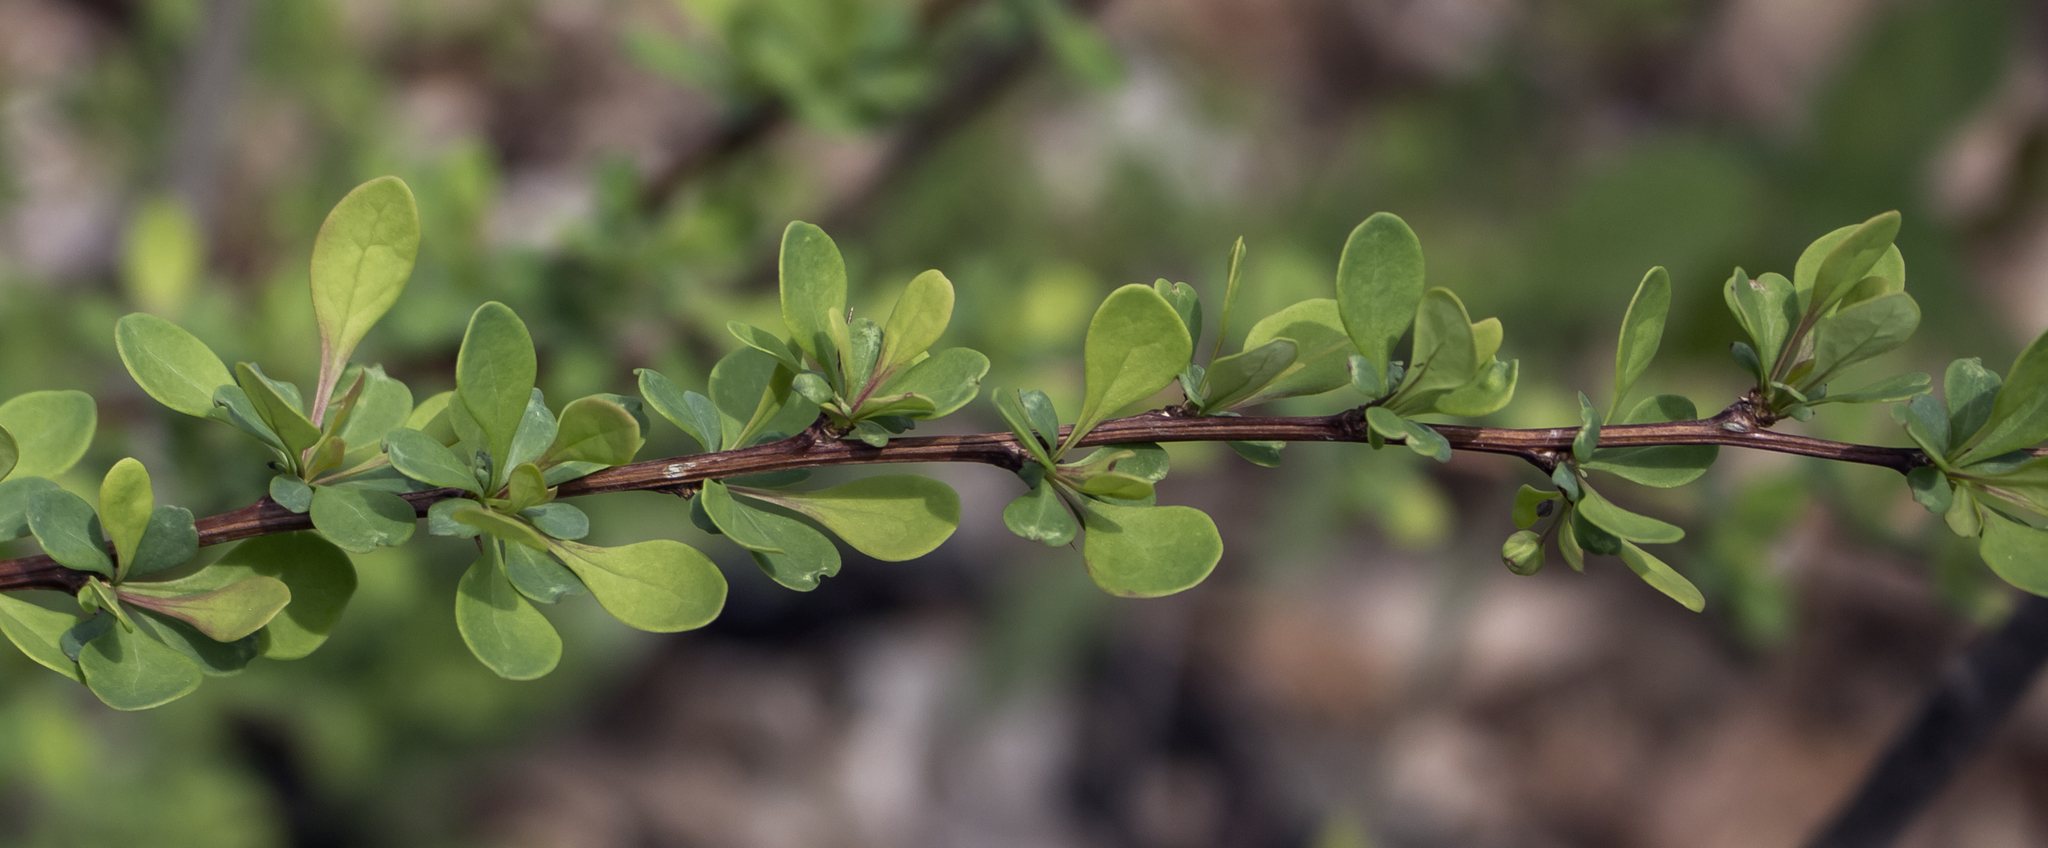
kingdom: Plantae
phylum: Tracheophyta
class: Magnoliopsida
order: Ranunculales
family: Berberidaceae
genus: Berberis
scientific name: Berberis thunbergii
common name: Japanese barberry
